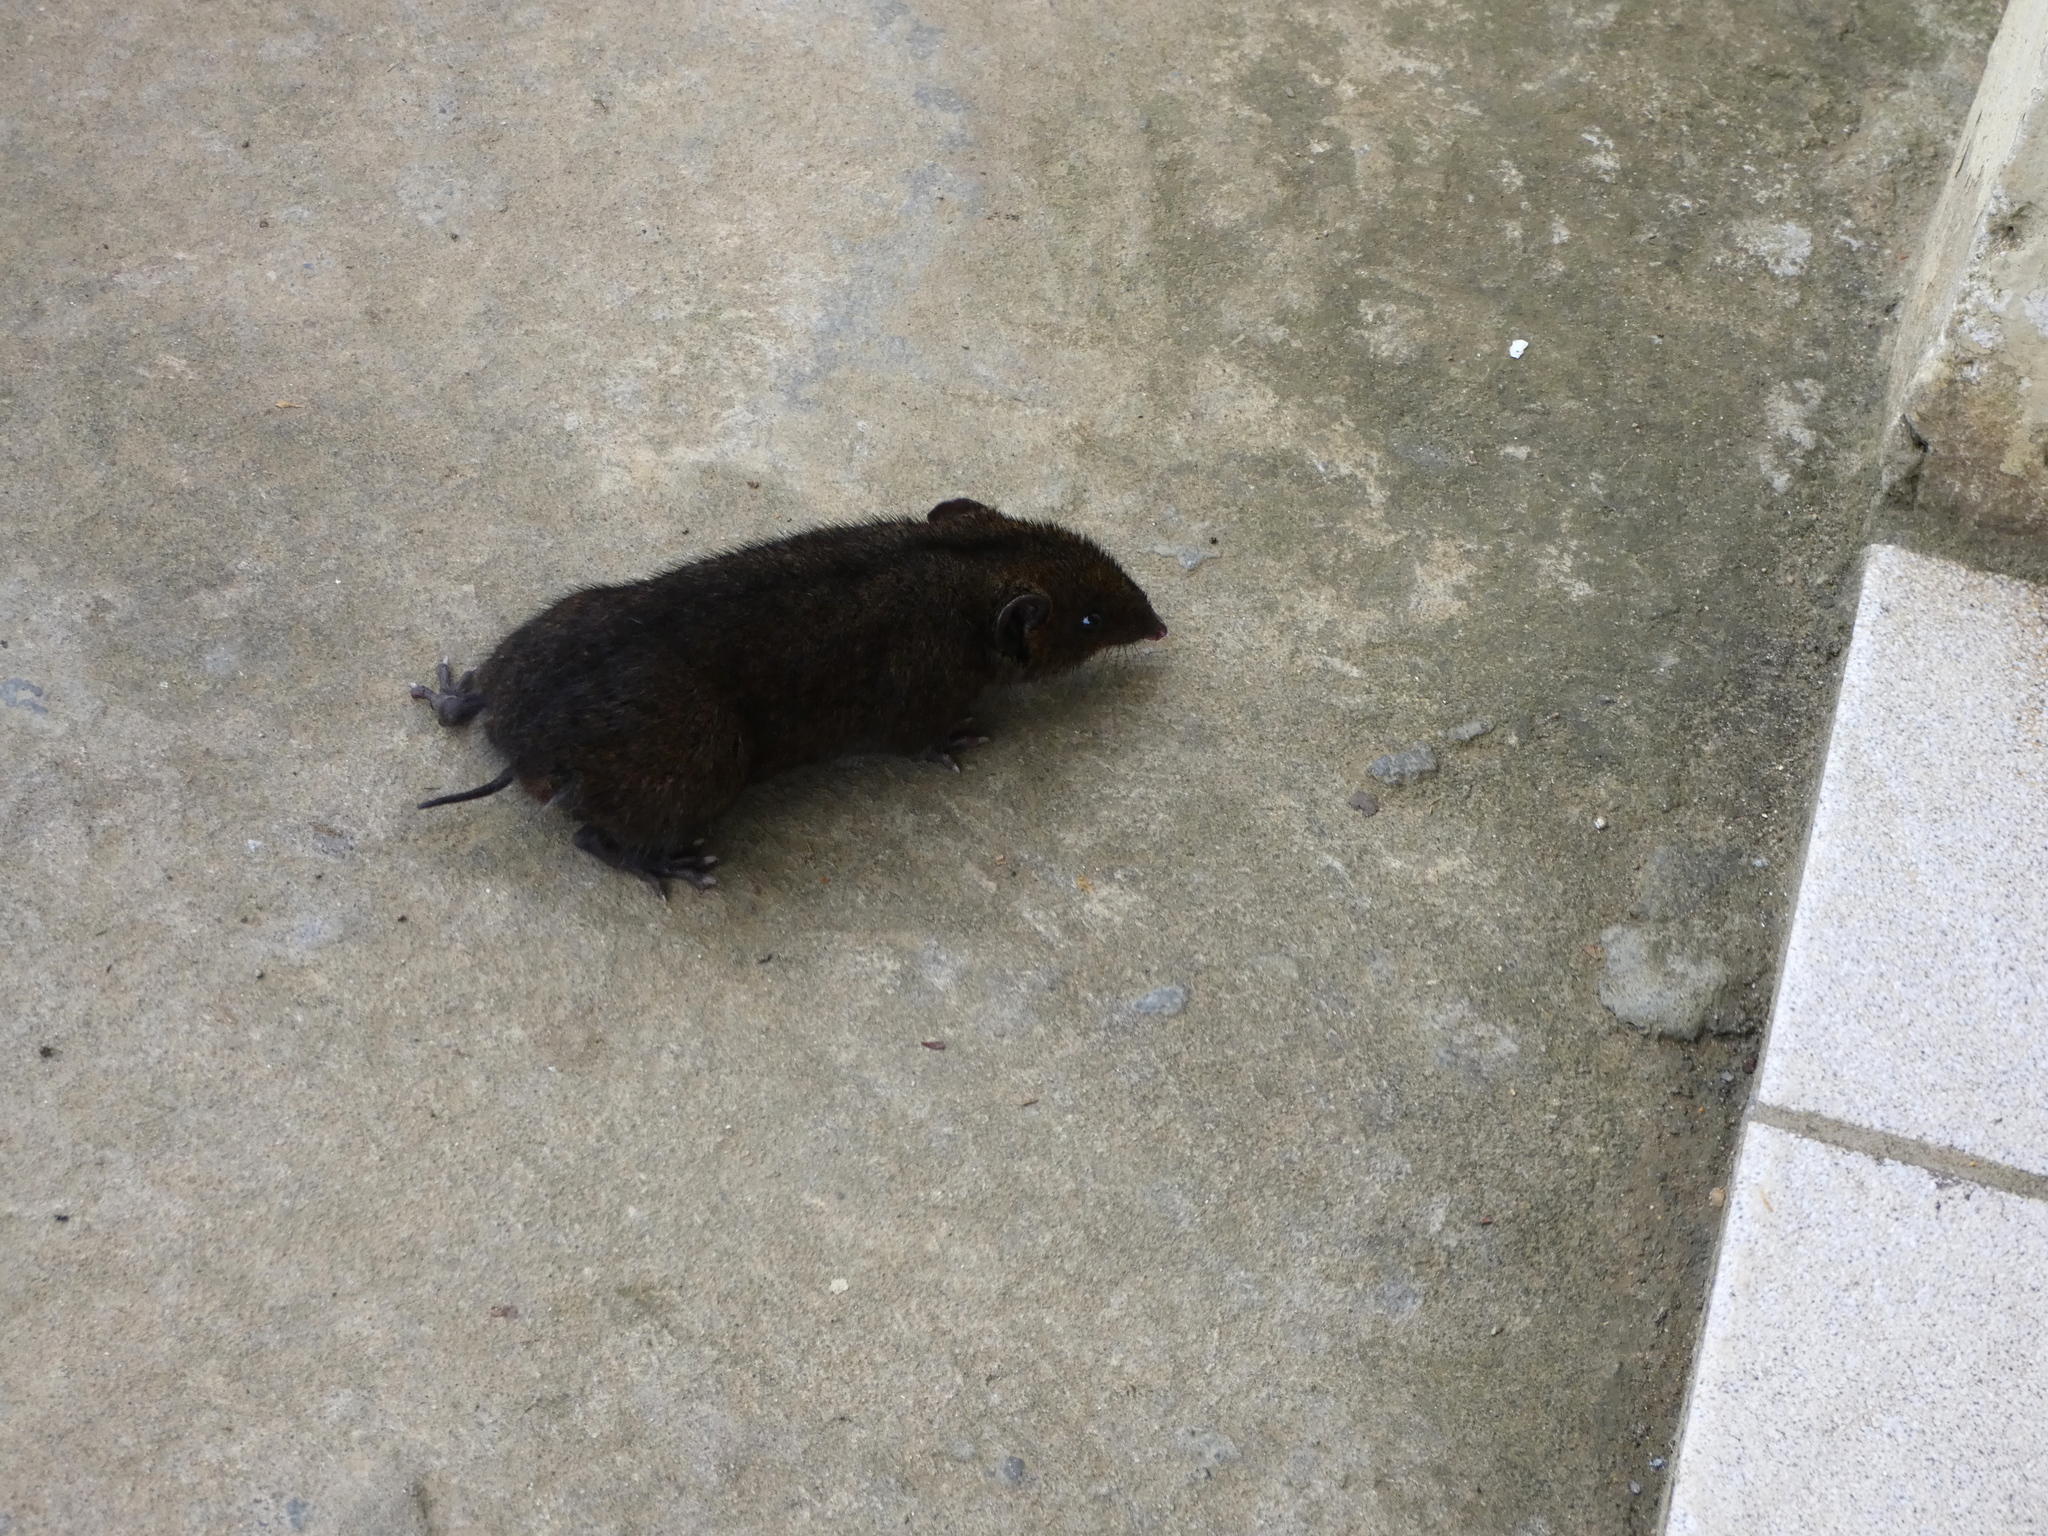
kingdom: Animalia
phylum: Chordata
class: Mammalia
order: Erinaceomorpha
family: Erinaceidae
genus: Hylomys
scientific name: Hylomys suillus
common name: Short-tailed gymnure
